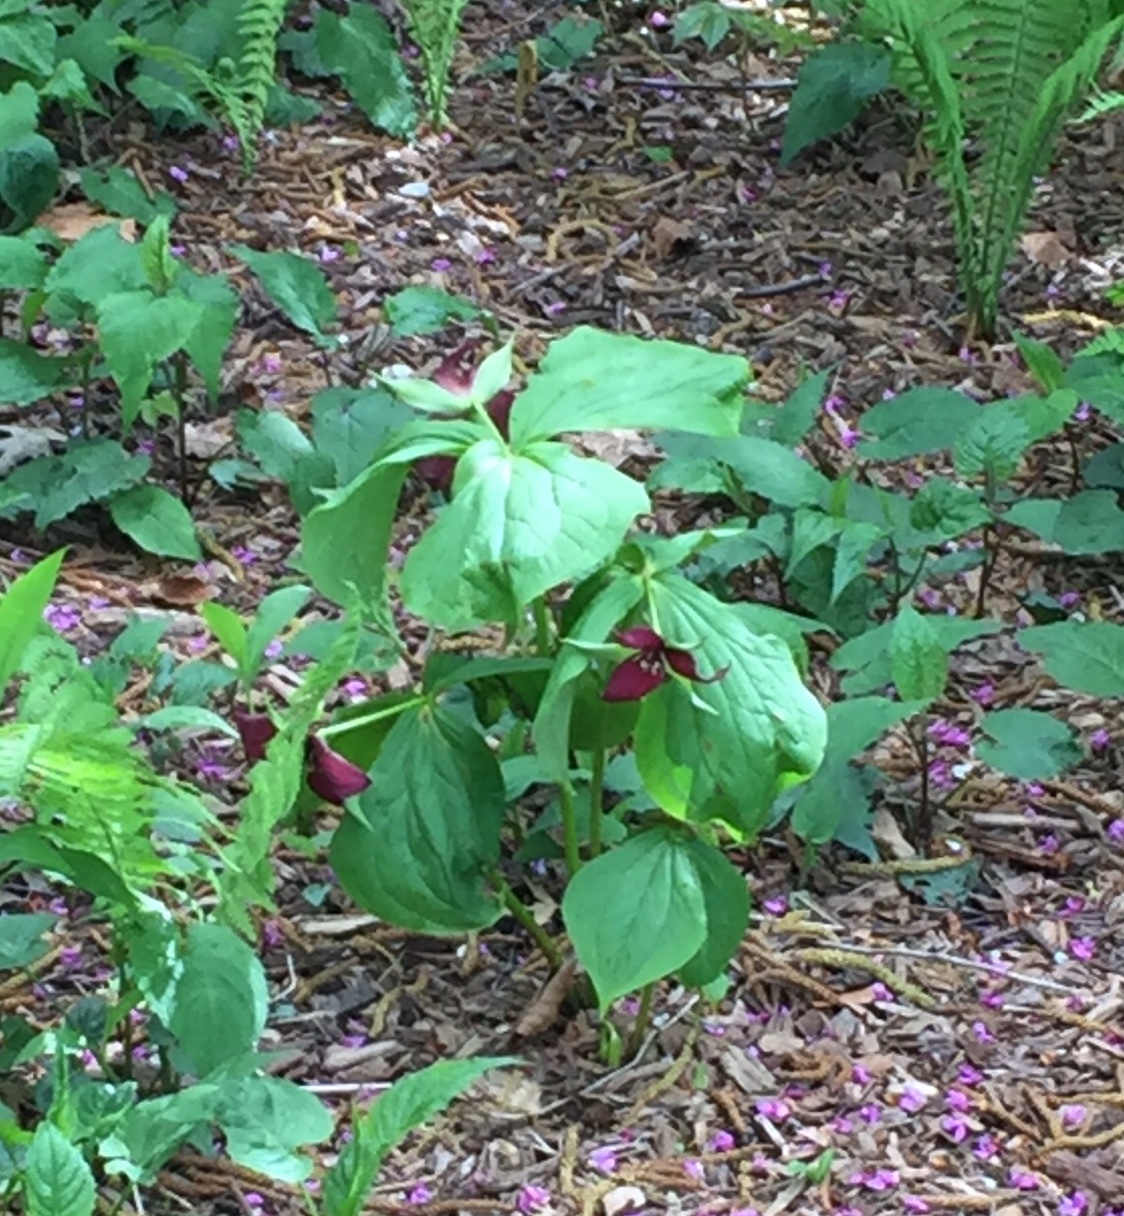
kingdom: Plantae
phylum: Tracheophyta
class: Liliopsida
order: Liliales
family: Melanthiaceae
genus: Trillium
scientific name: Trillium erectum
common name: Purple trillium
